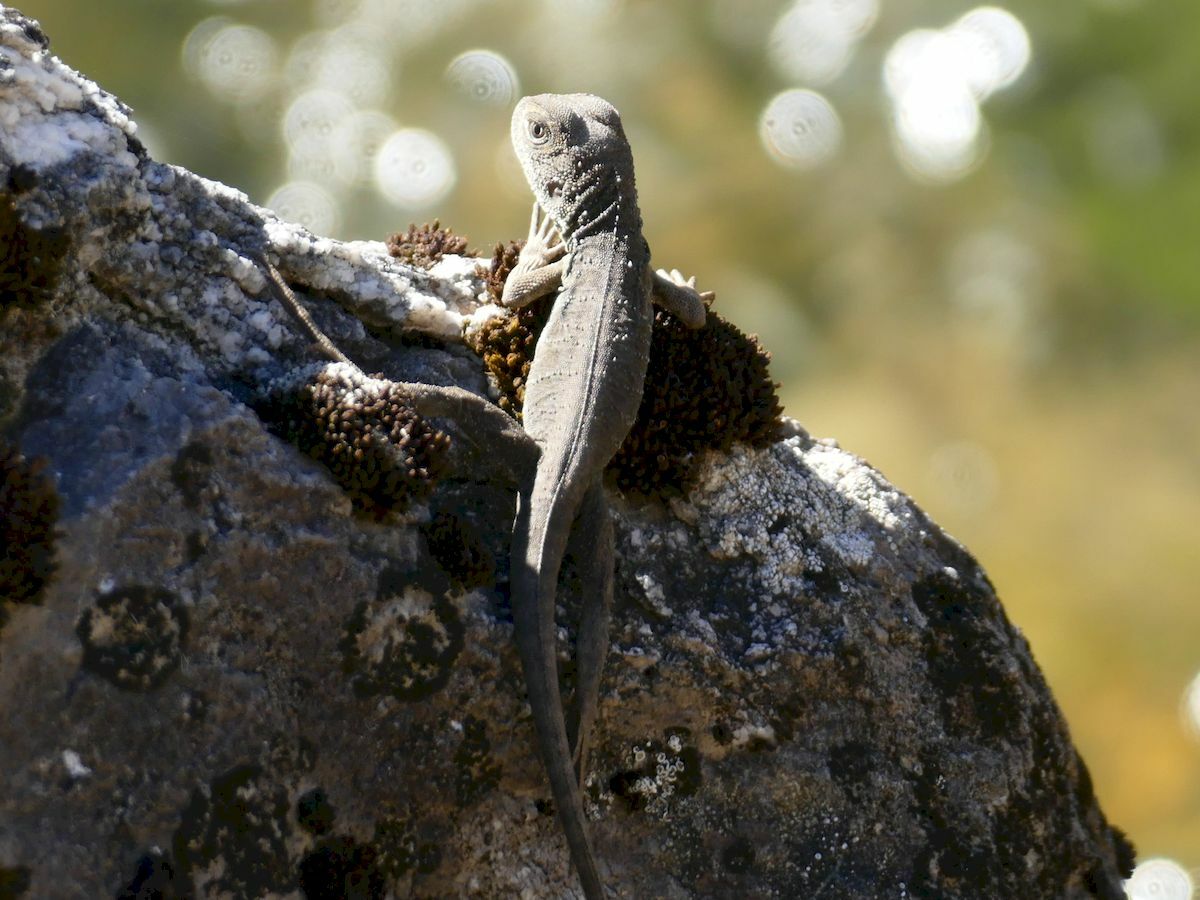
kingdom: Animalia
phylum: Chordata
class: Squamata
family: Agamidae
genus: Intellagama
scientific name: Intellagama lesueurii
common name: Eastern water dragon
